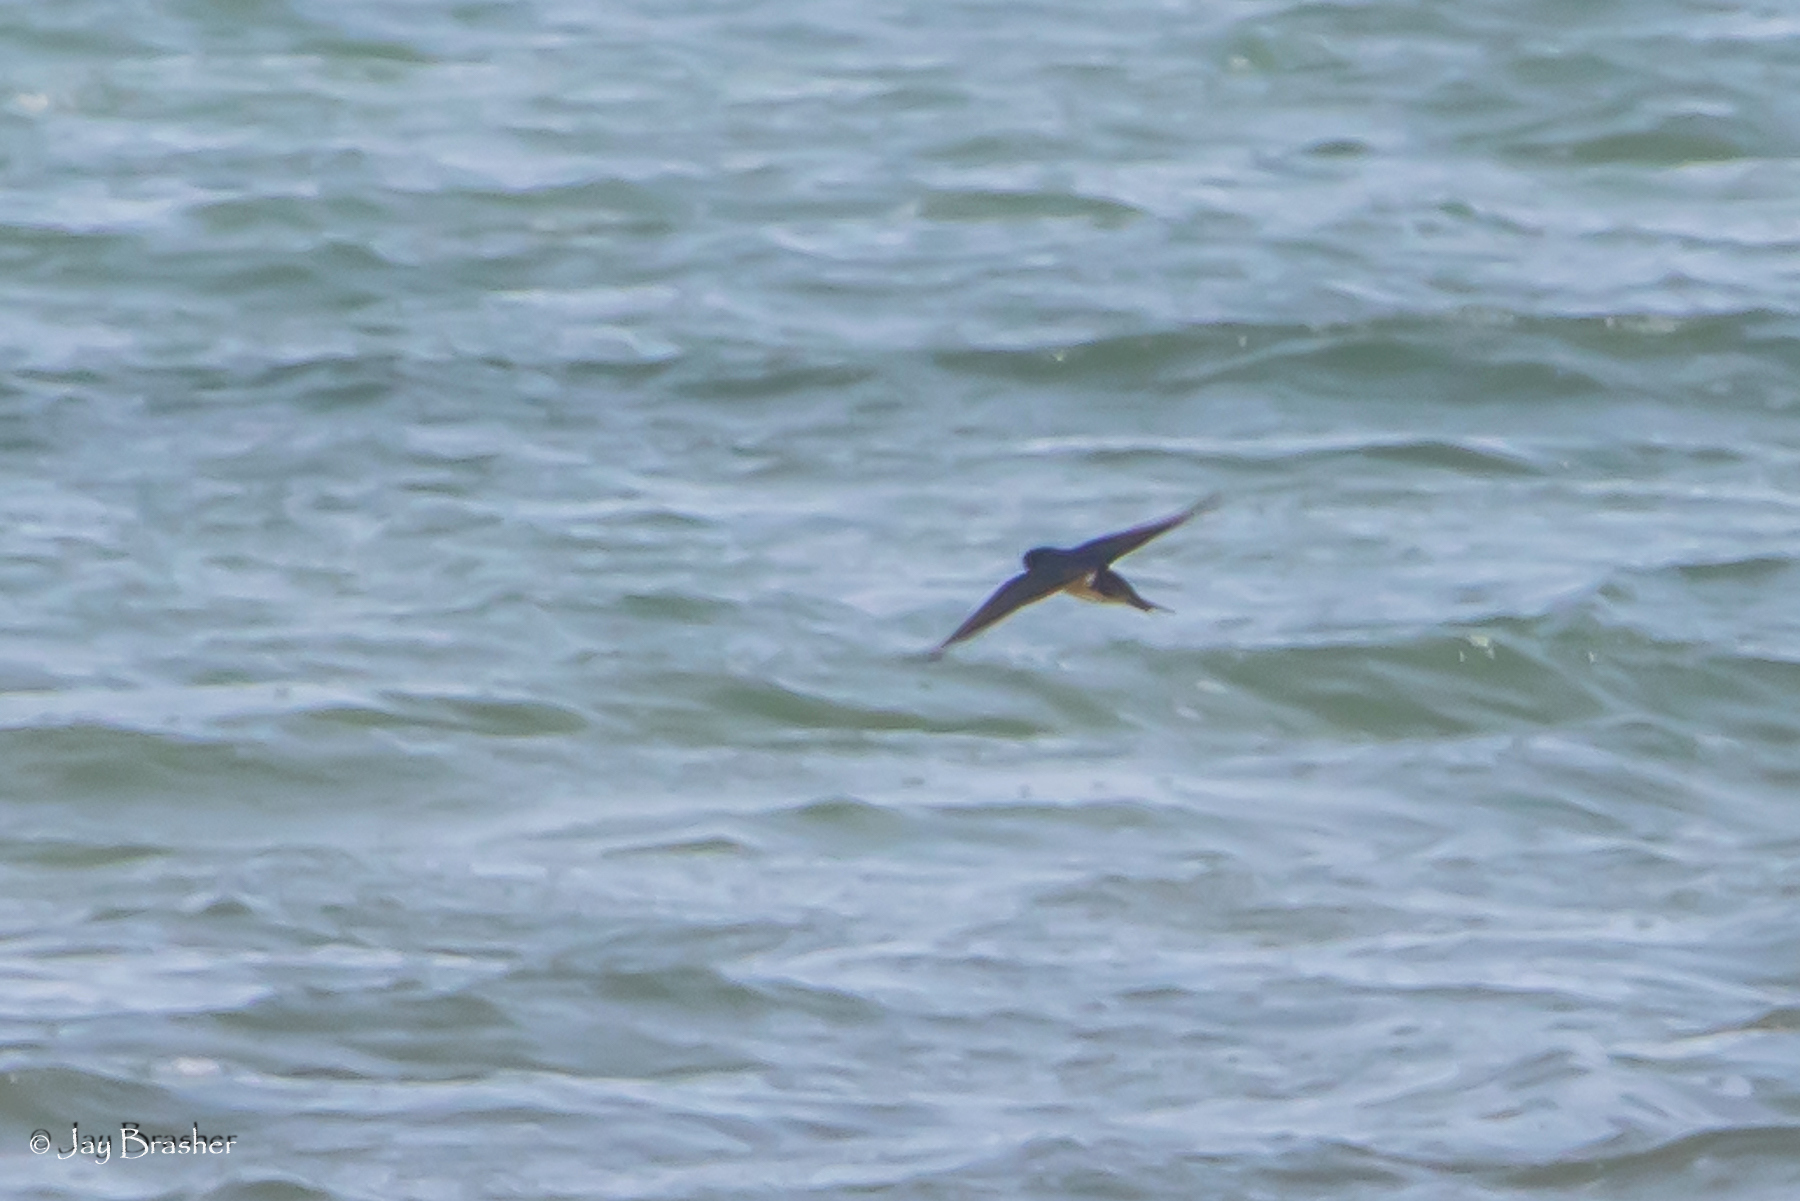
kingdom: Animalia
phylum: Chordata
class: Aves
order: Passeriformes
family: Hirundinidae
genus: Hirundo
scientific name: Hirundo rustica
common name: Barn swallow
